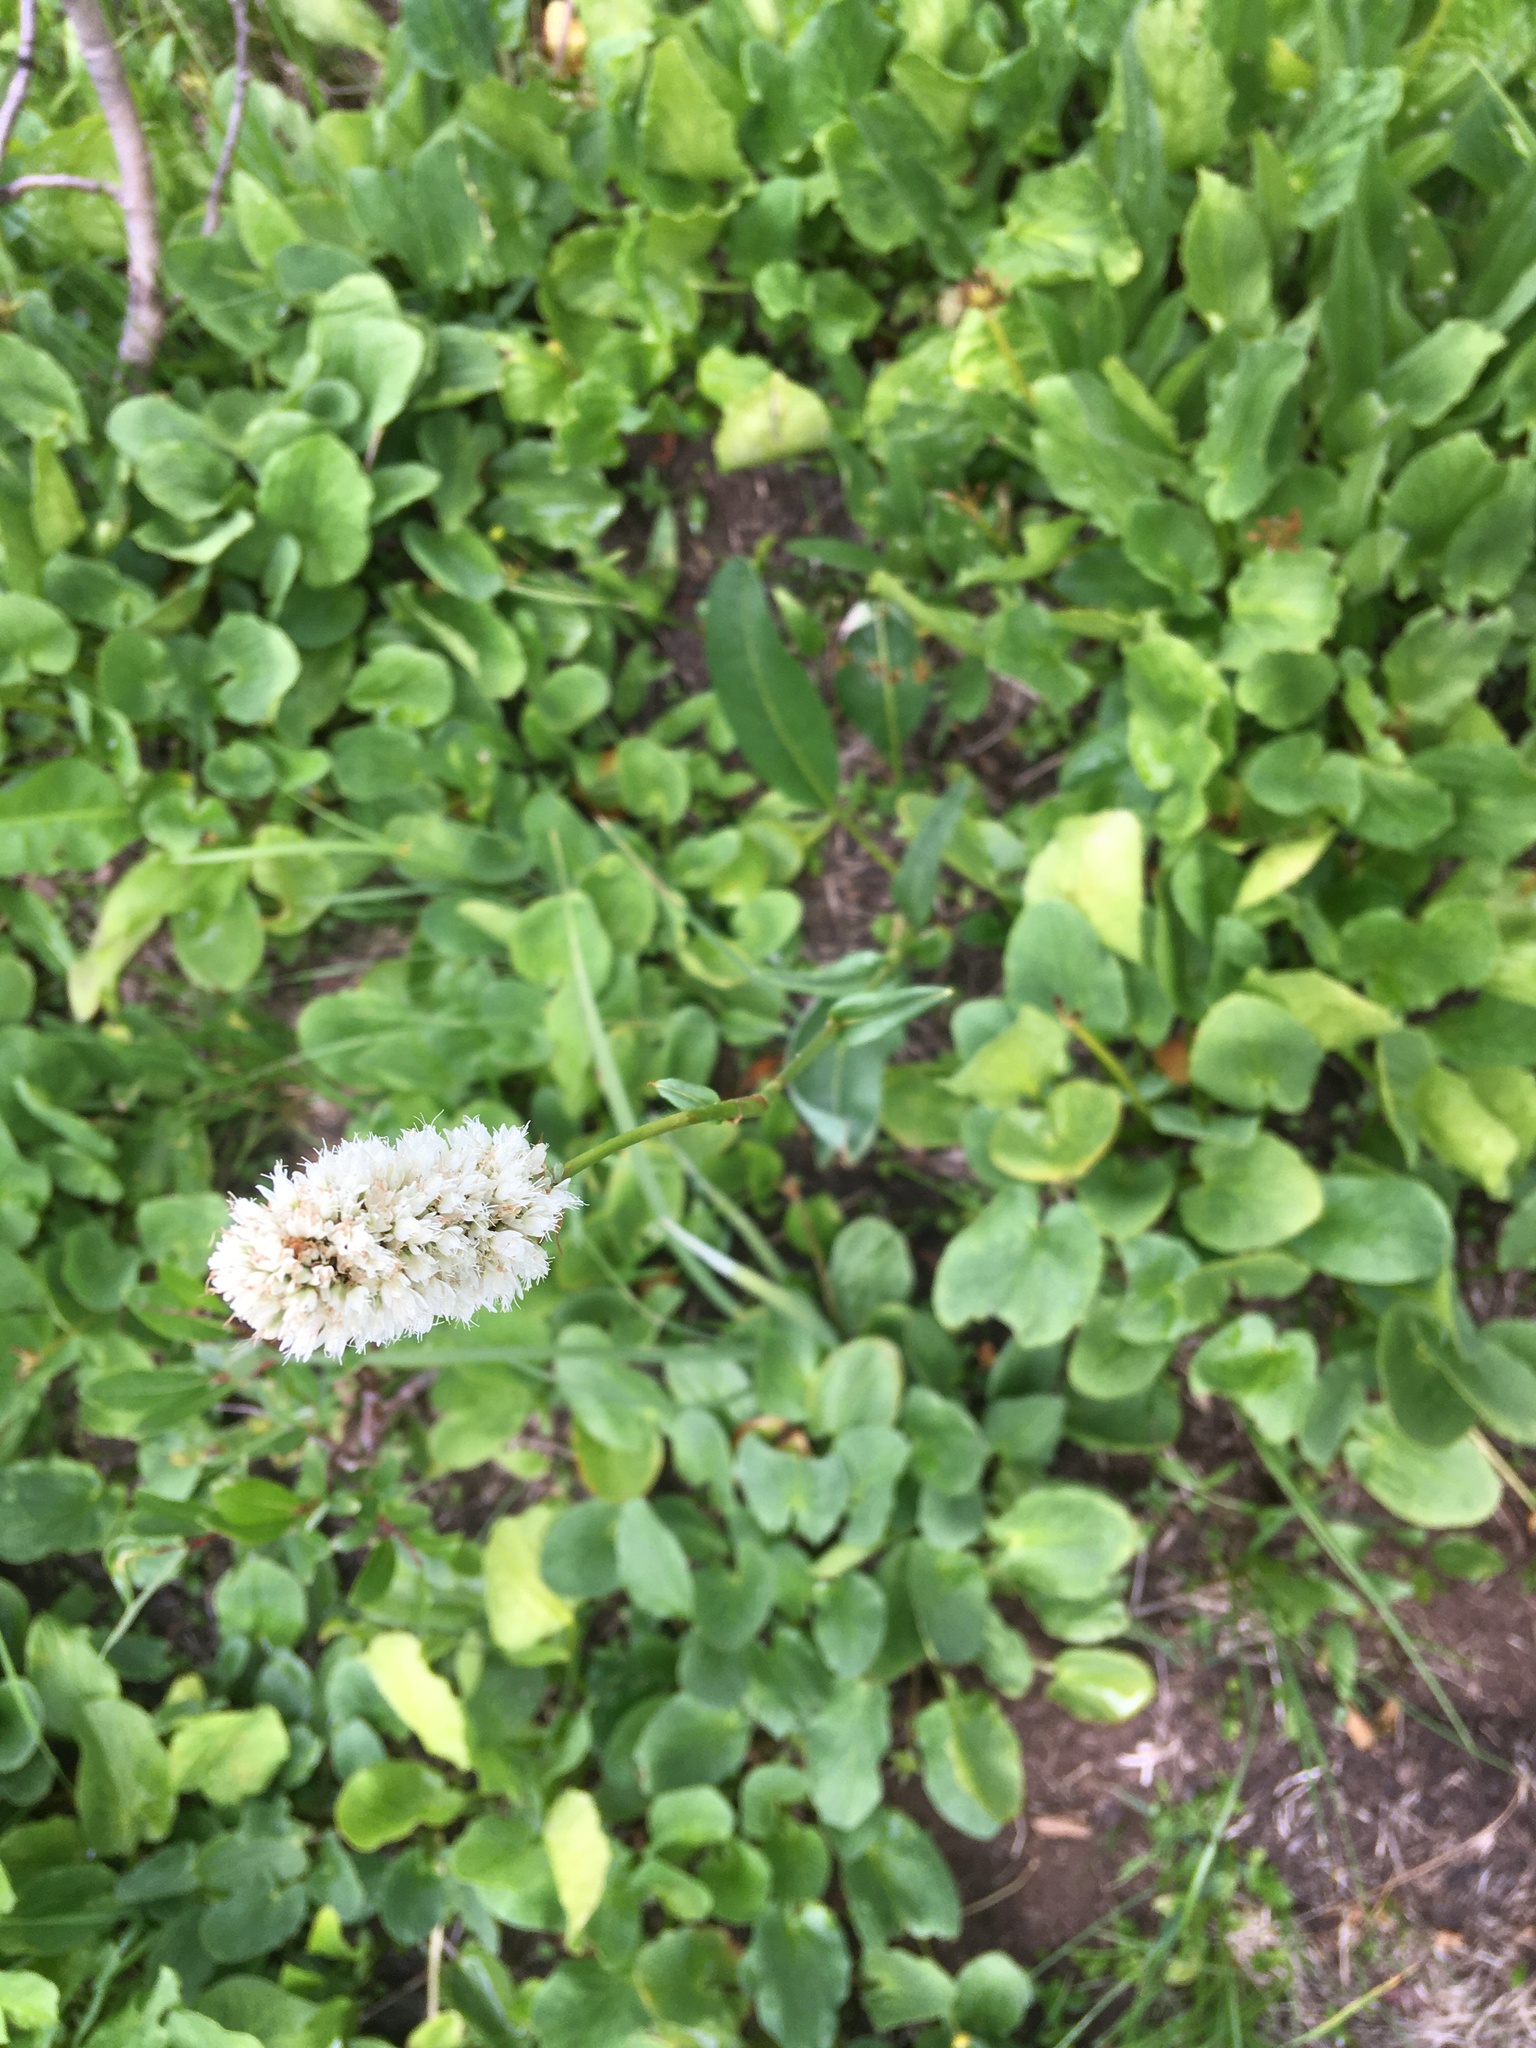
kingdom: Plantae
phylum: Tracheophyta
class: Magnoliopsida
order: Caryophyllales
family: Polygonaceae
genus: Bistorta
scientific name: Bistorta bistortoides
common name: American bistort
